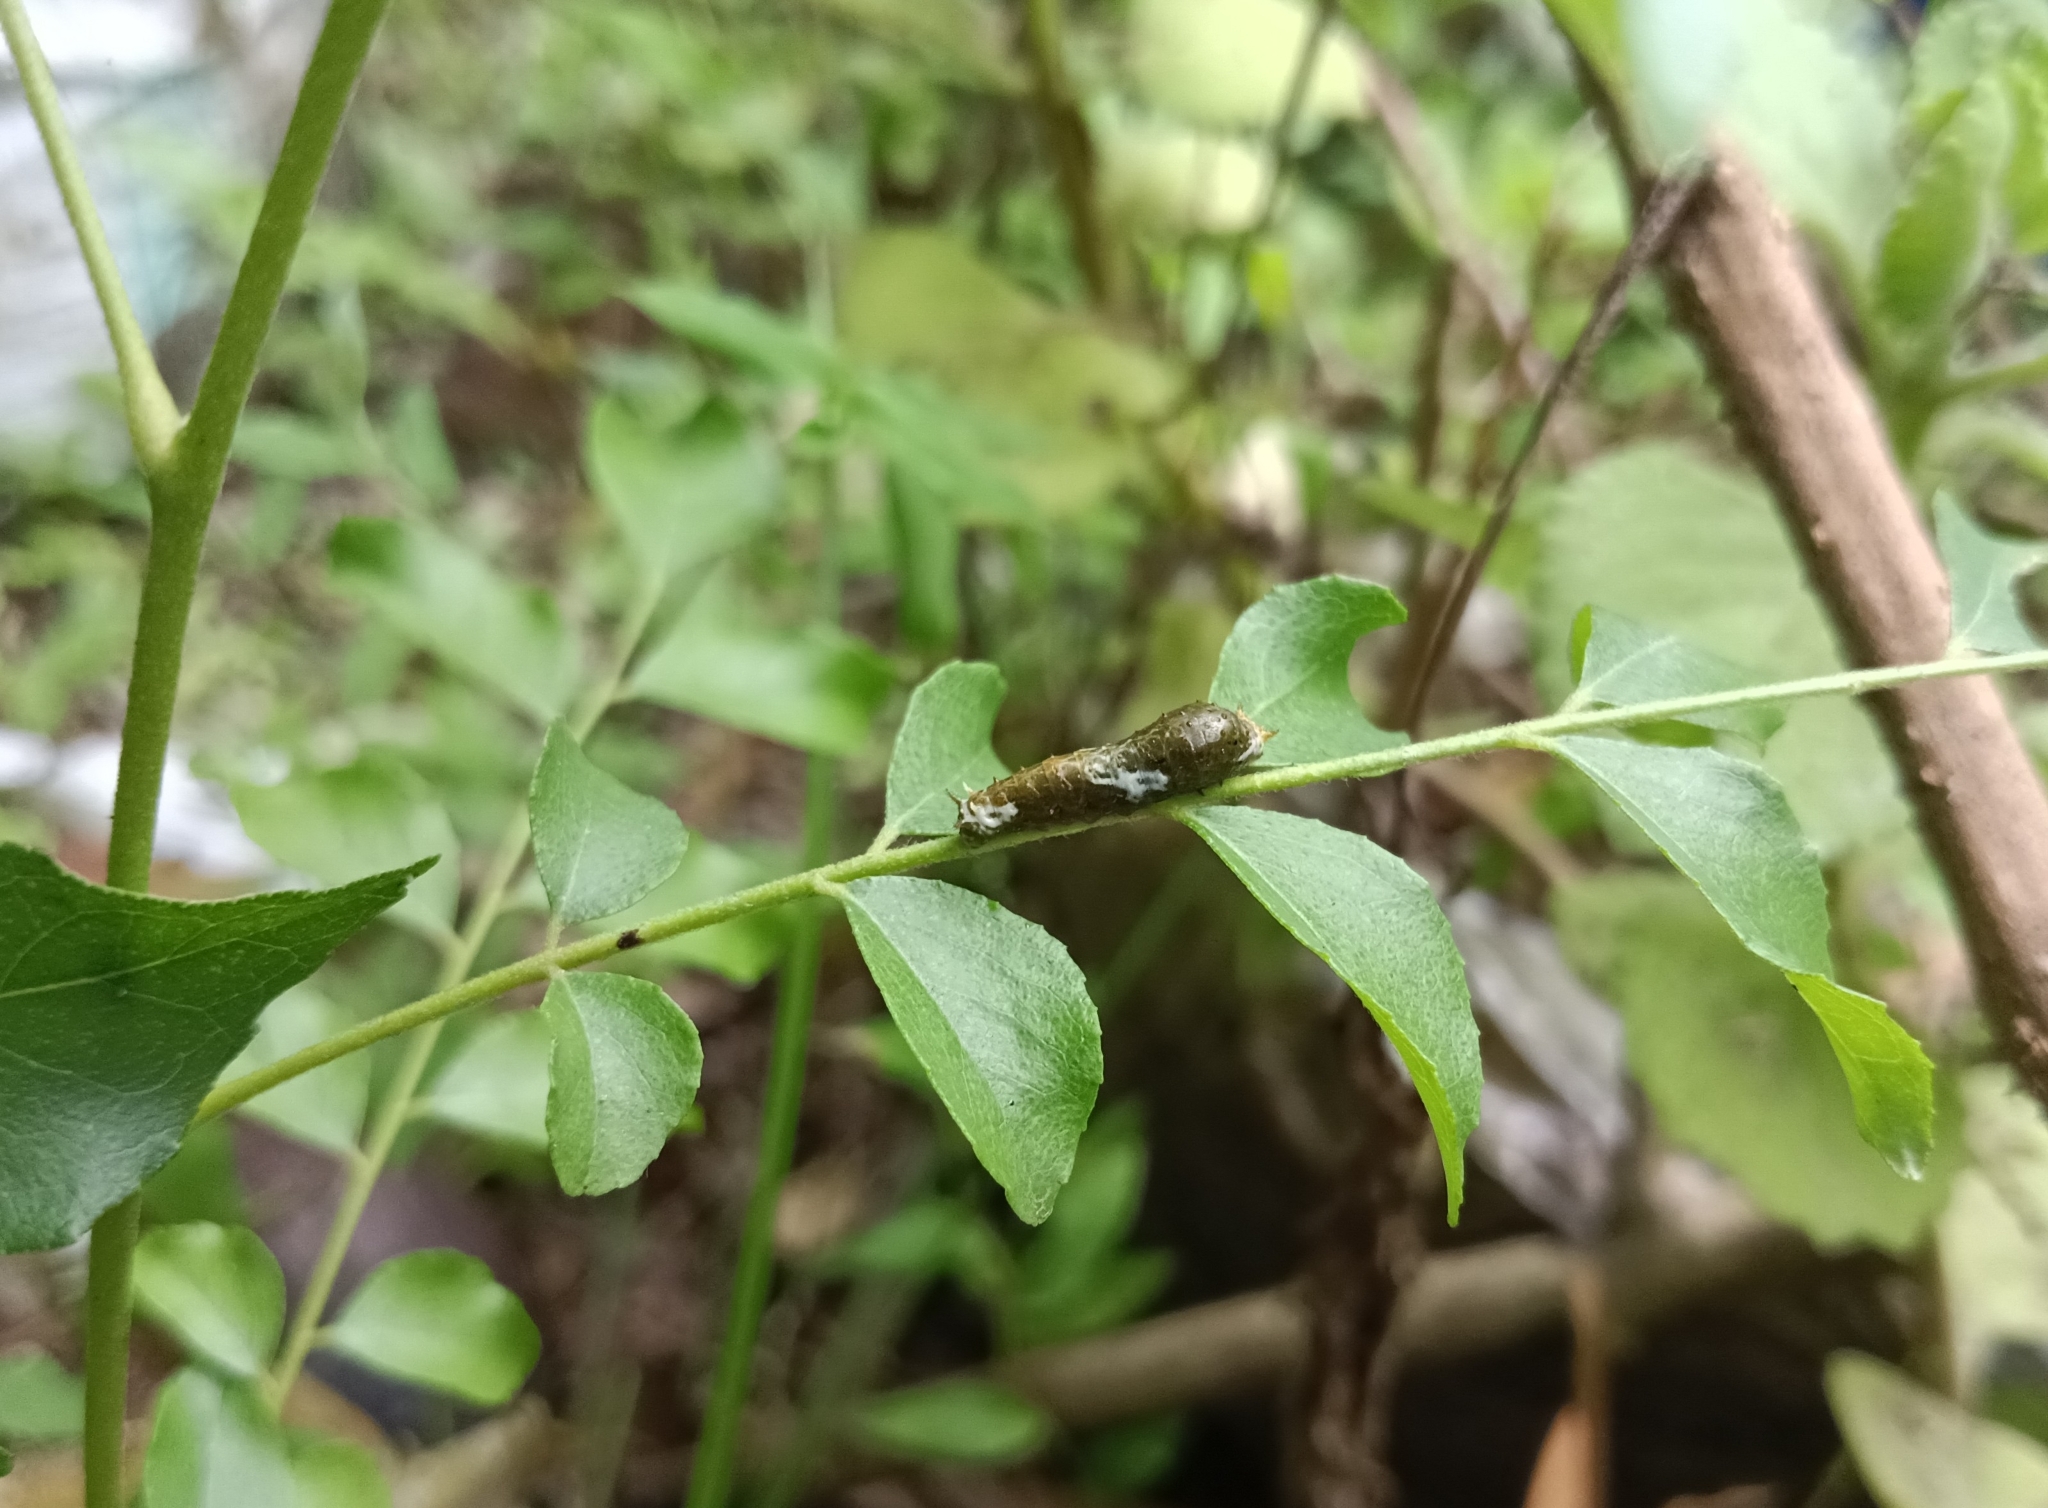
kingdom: Animalia
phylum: Arthropoda
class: Insecta
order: Lepidoptera
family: Papilionidae
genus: Papilio
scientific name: Papilio polytes
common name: Common mormon
